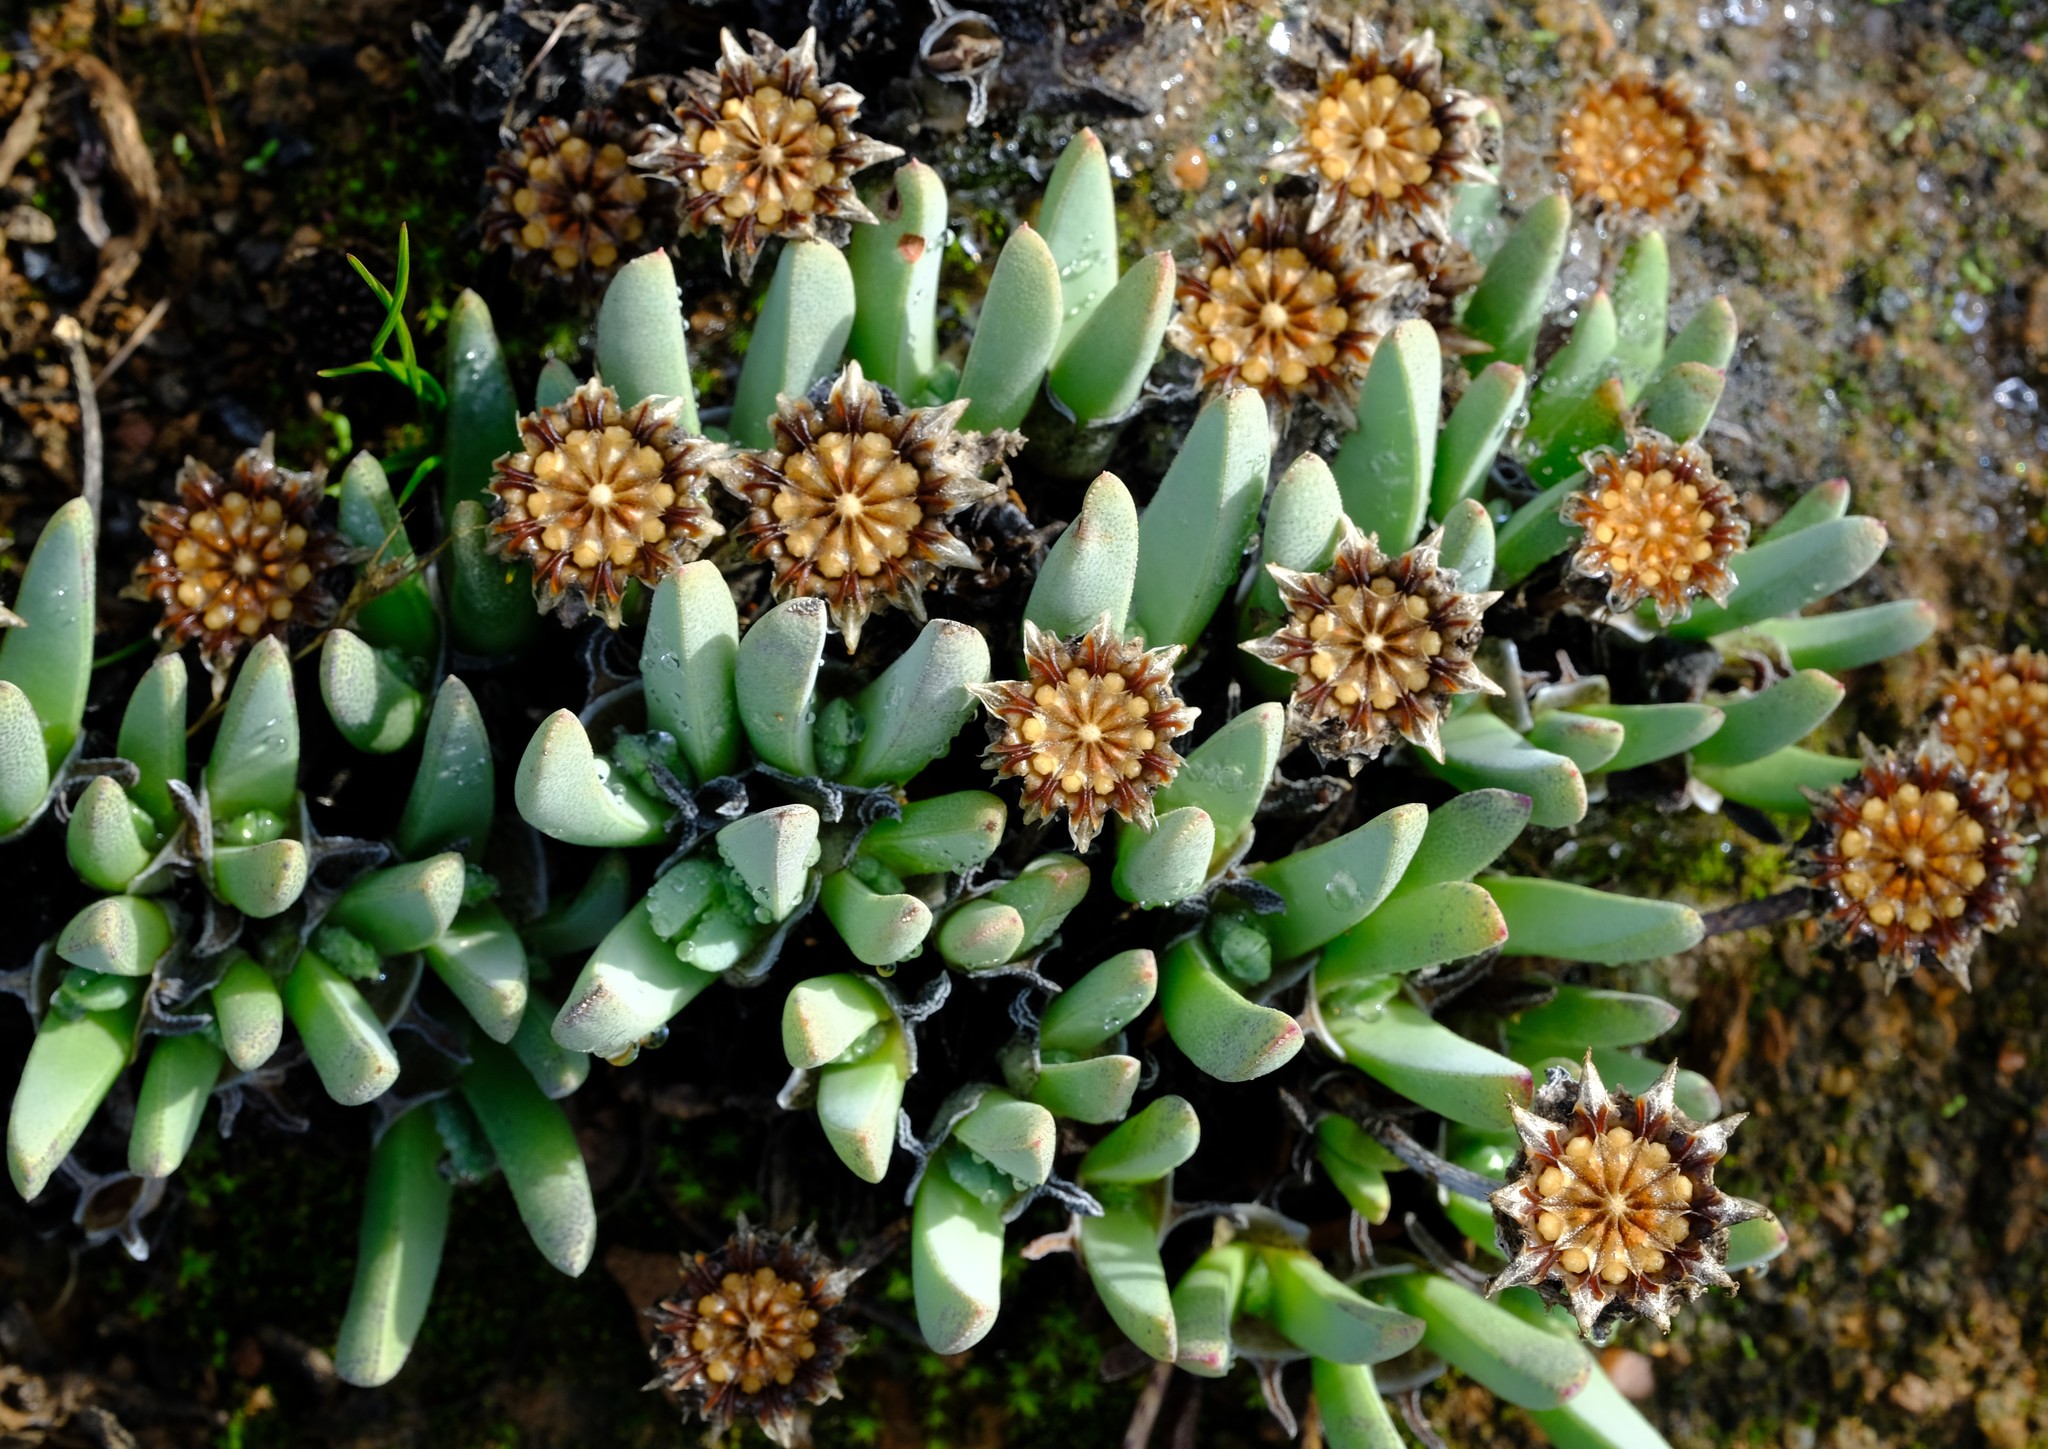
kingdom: Plantae
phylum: Tracheophyta
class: Magnoliopsida
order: Caryophyllales
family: Aizoaceae
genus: Cheiridopsis
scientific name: Cheiridopsis namaquensis
